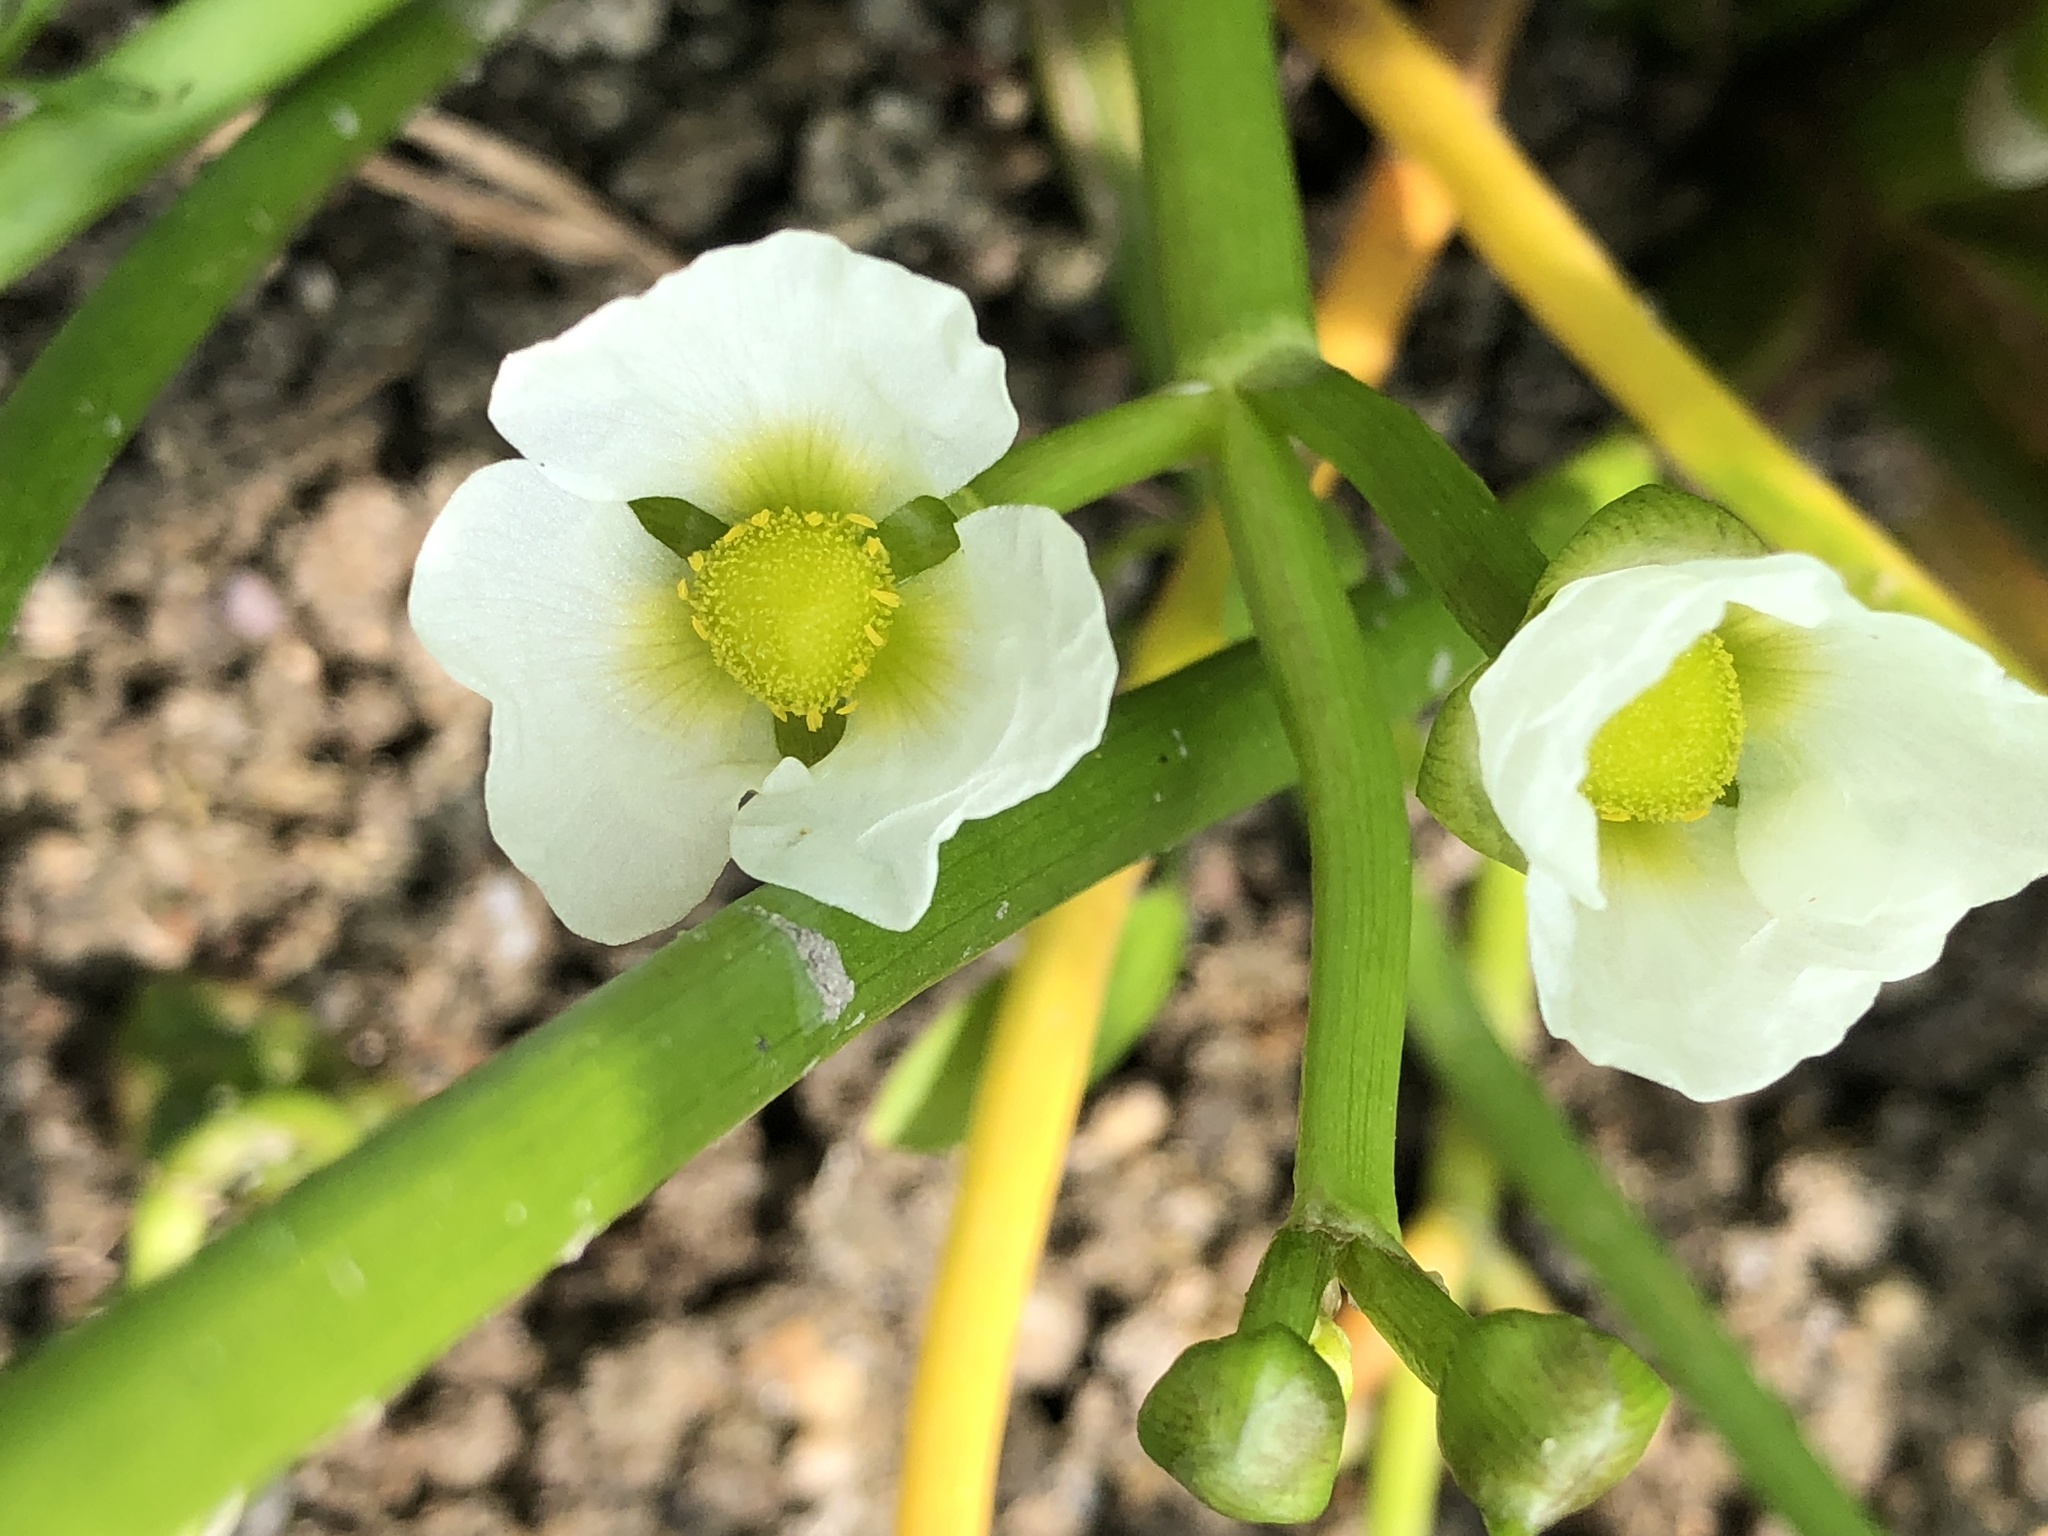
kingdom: Plantae
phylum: Tracheophyta
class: Liliopsida
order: Alismatales
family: Alismataceae
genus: Sagittaria
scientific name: Sagittaria calycina
